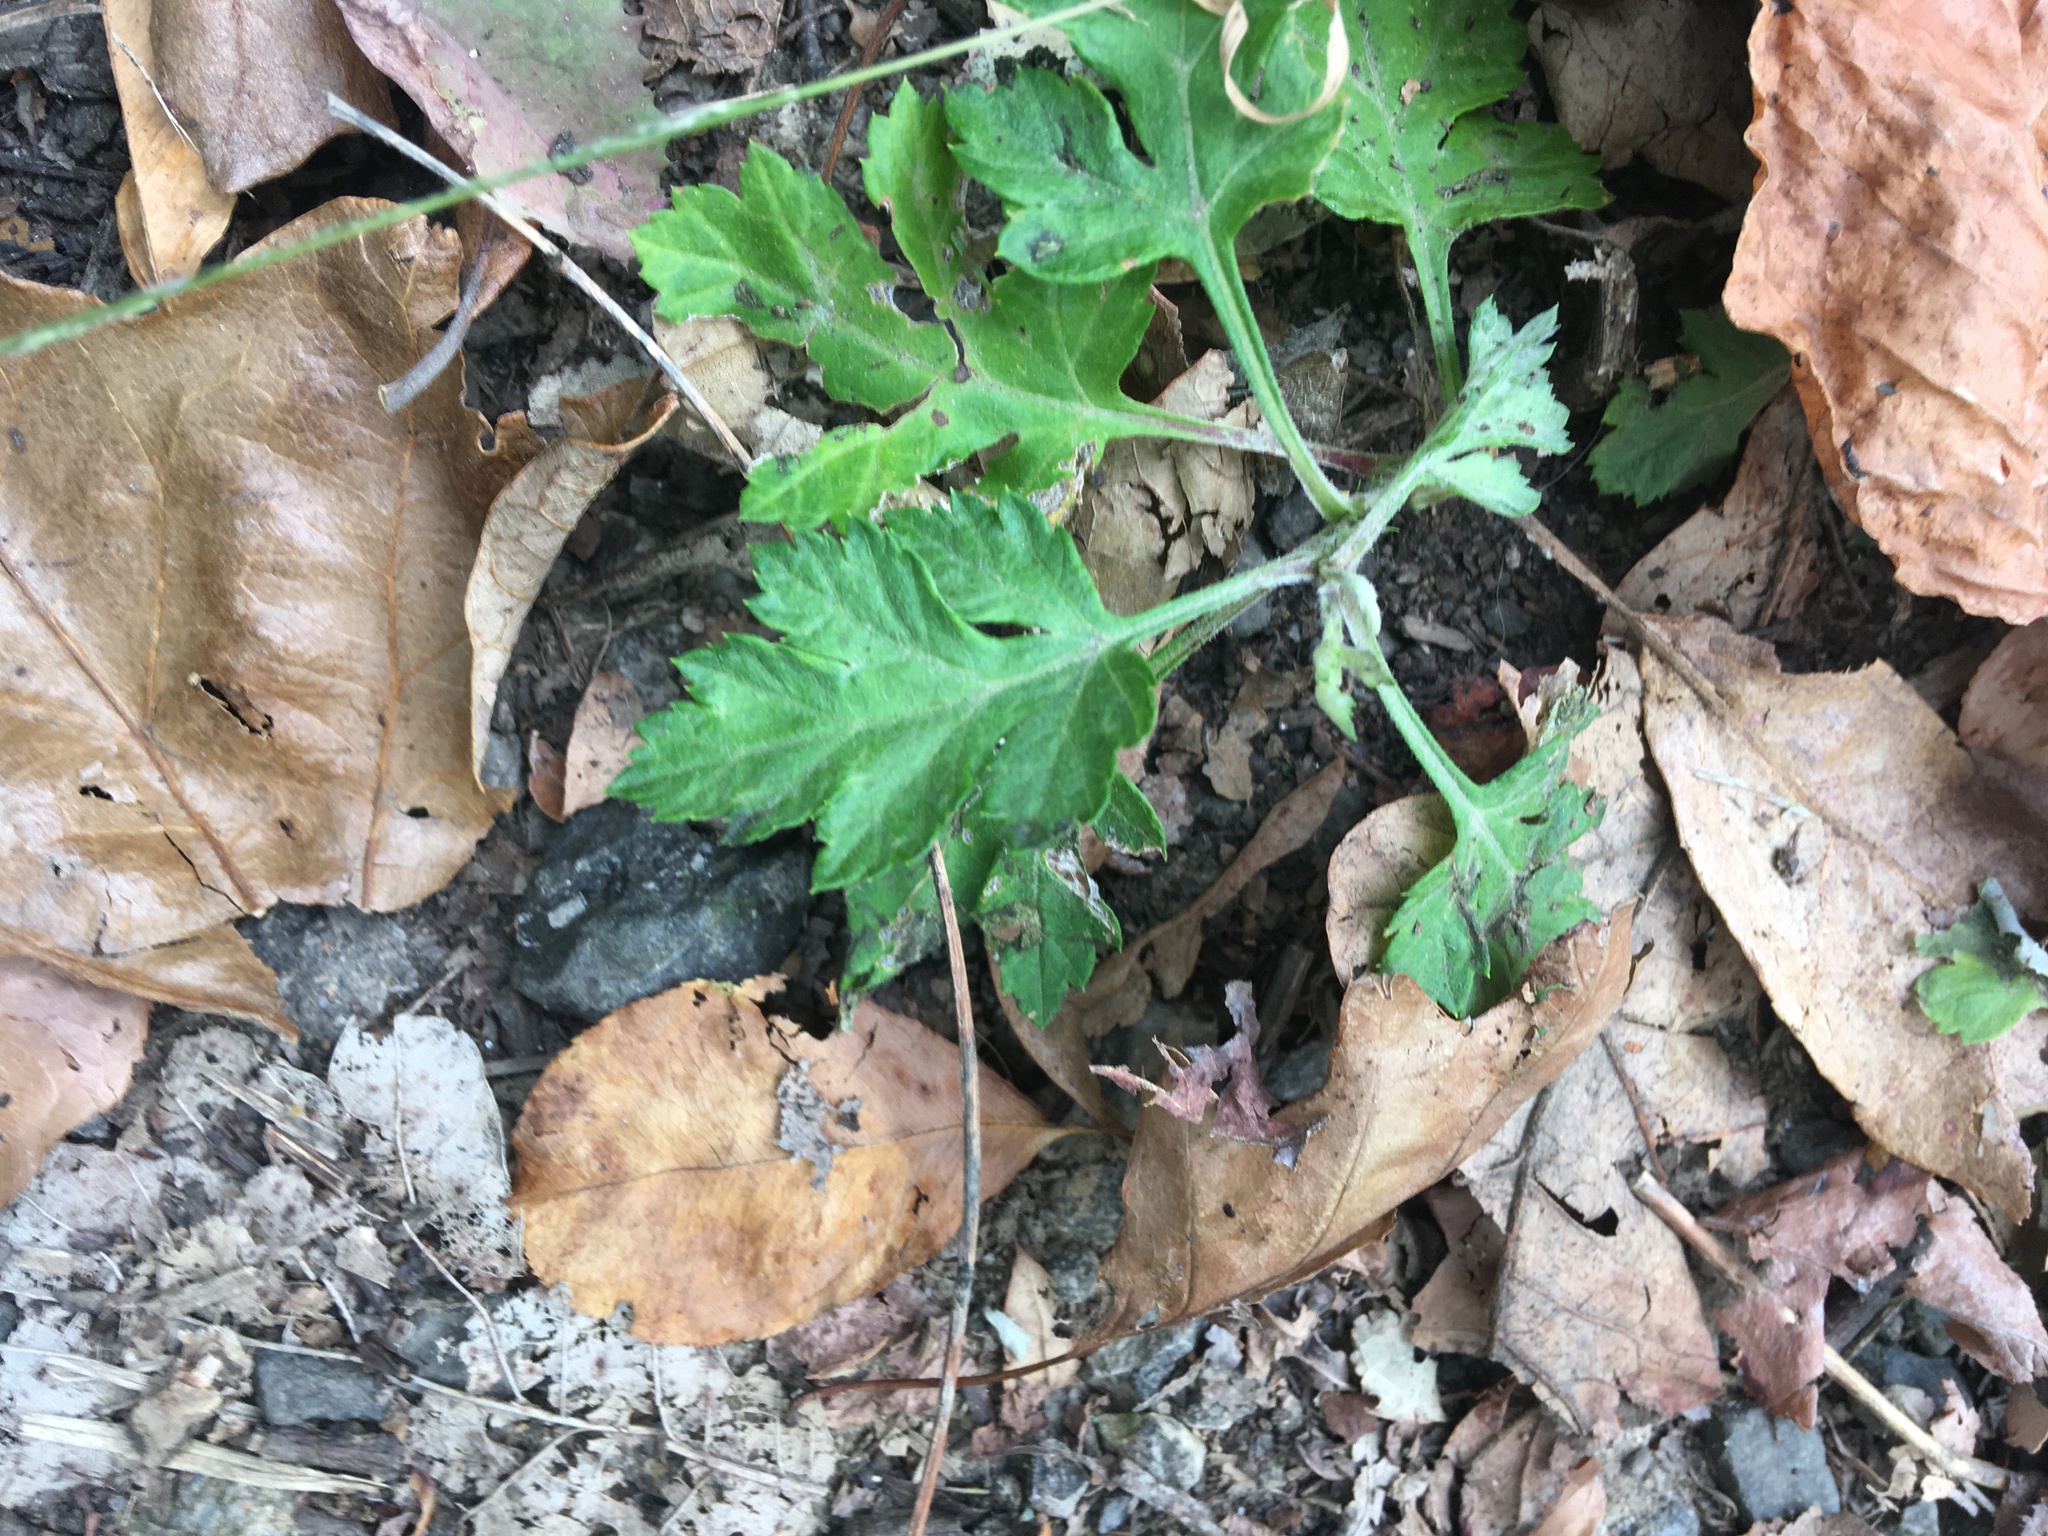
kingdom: Plantae
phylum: Tracheophyta
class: Magnoliopsida
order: Asterales
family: Asteraceae
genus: Artemisia
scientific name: Artemisia vulgaris
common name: Mugwort
